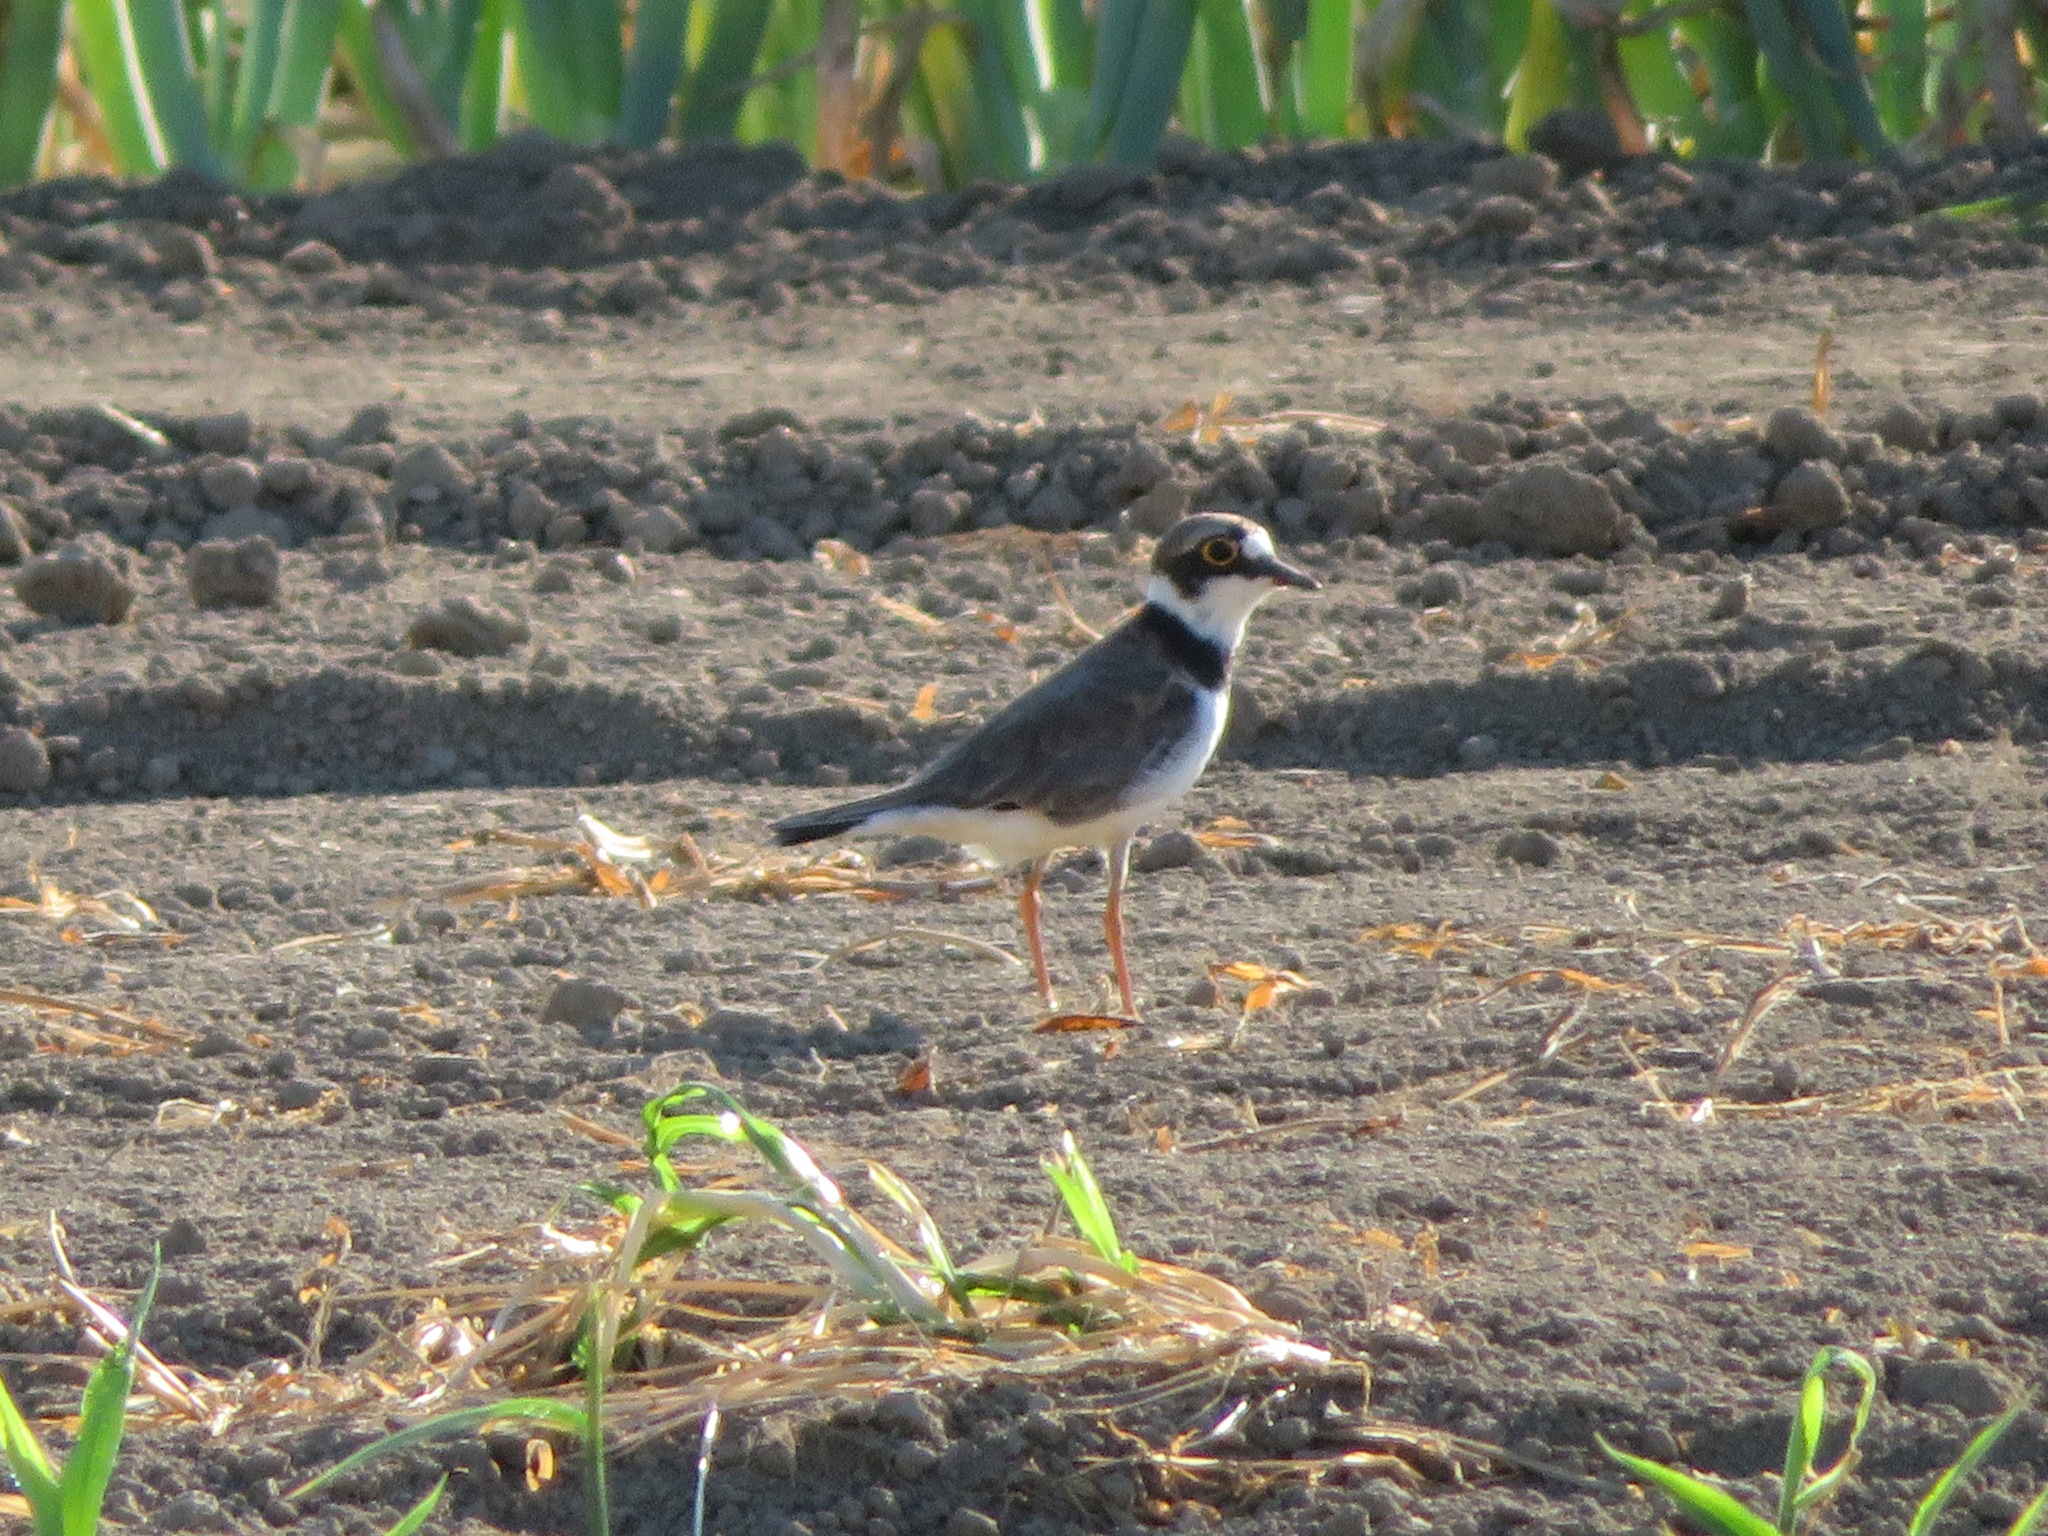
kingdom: Animalia
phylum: Chordata
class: Aves
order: Charadriiformes
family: Charadriidae
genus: Charadrius
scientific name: Charadrius dubius
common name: Little ringed plover
